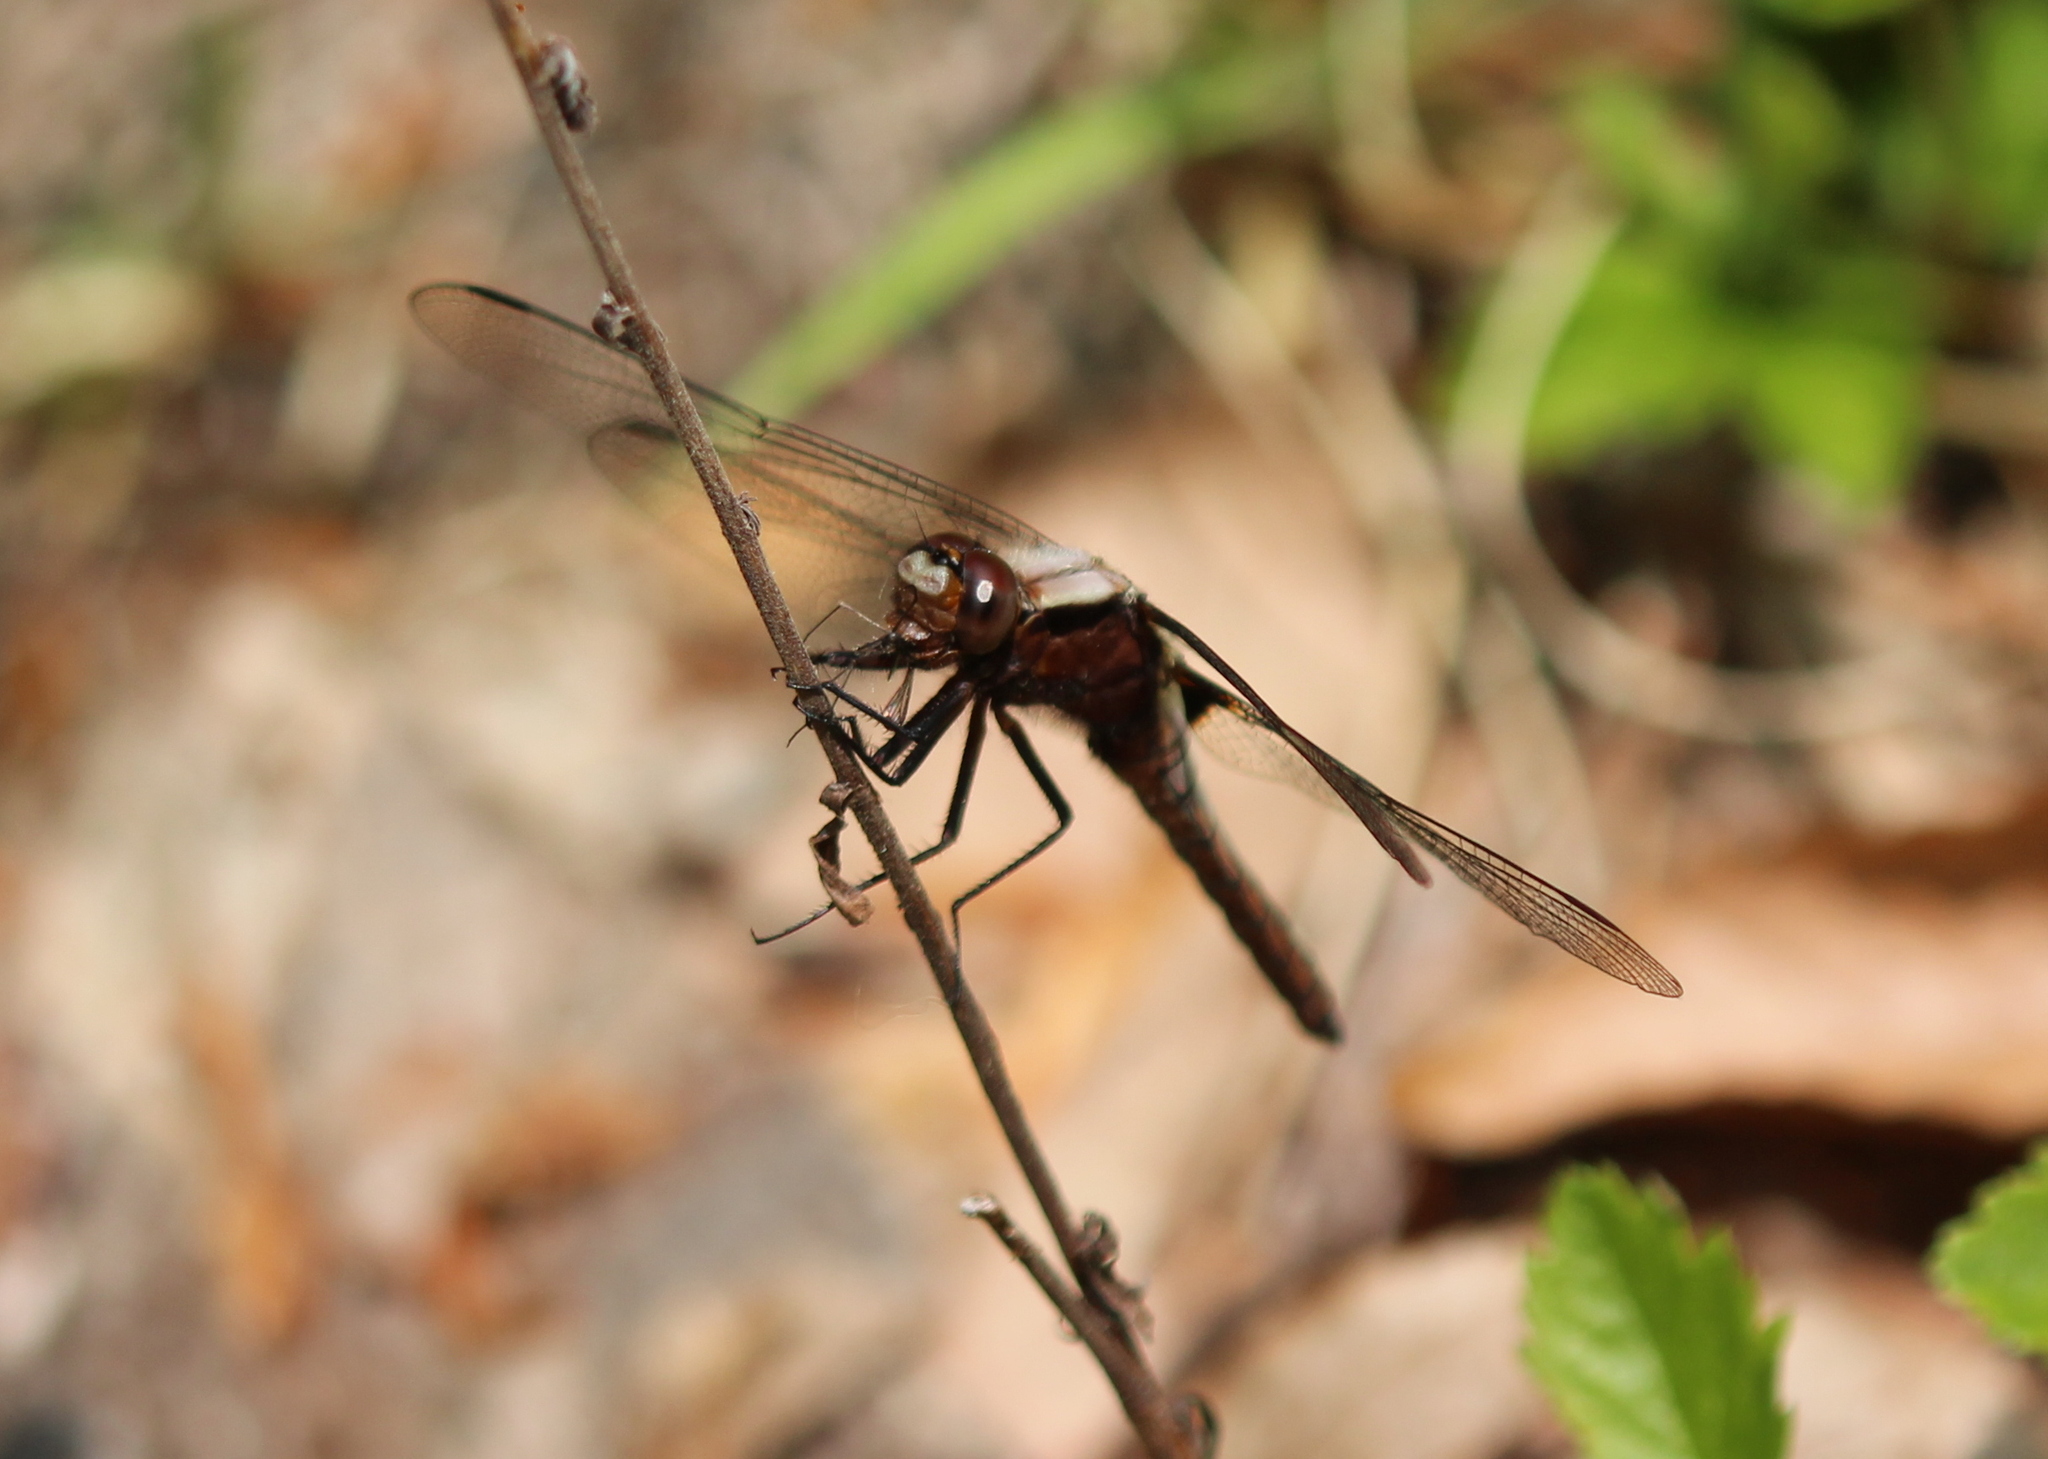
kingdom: Animalia
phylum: Arthropoda
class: Insecta
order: Odonata
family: Libellulidae
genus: Ladona
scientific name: Ladona julia
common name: Chalk-fronted corporal
